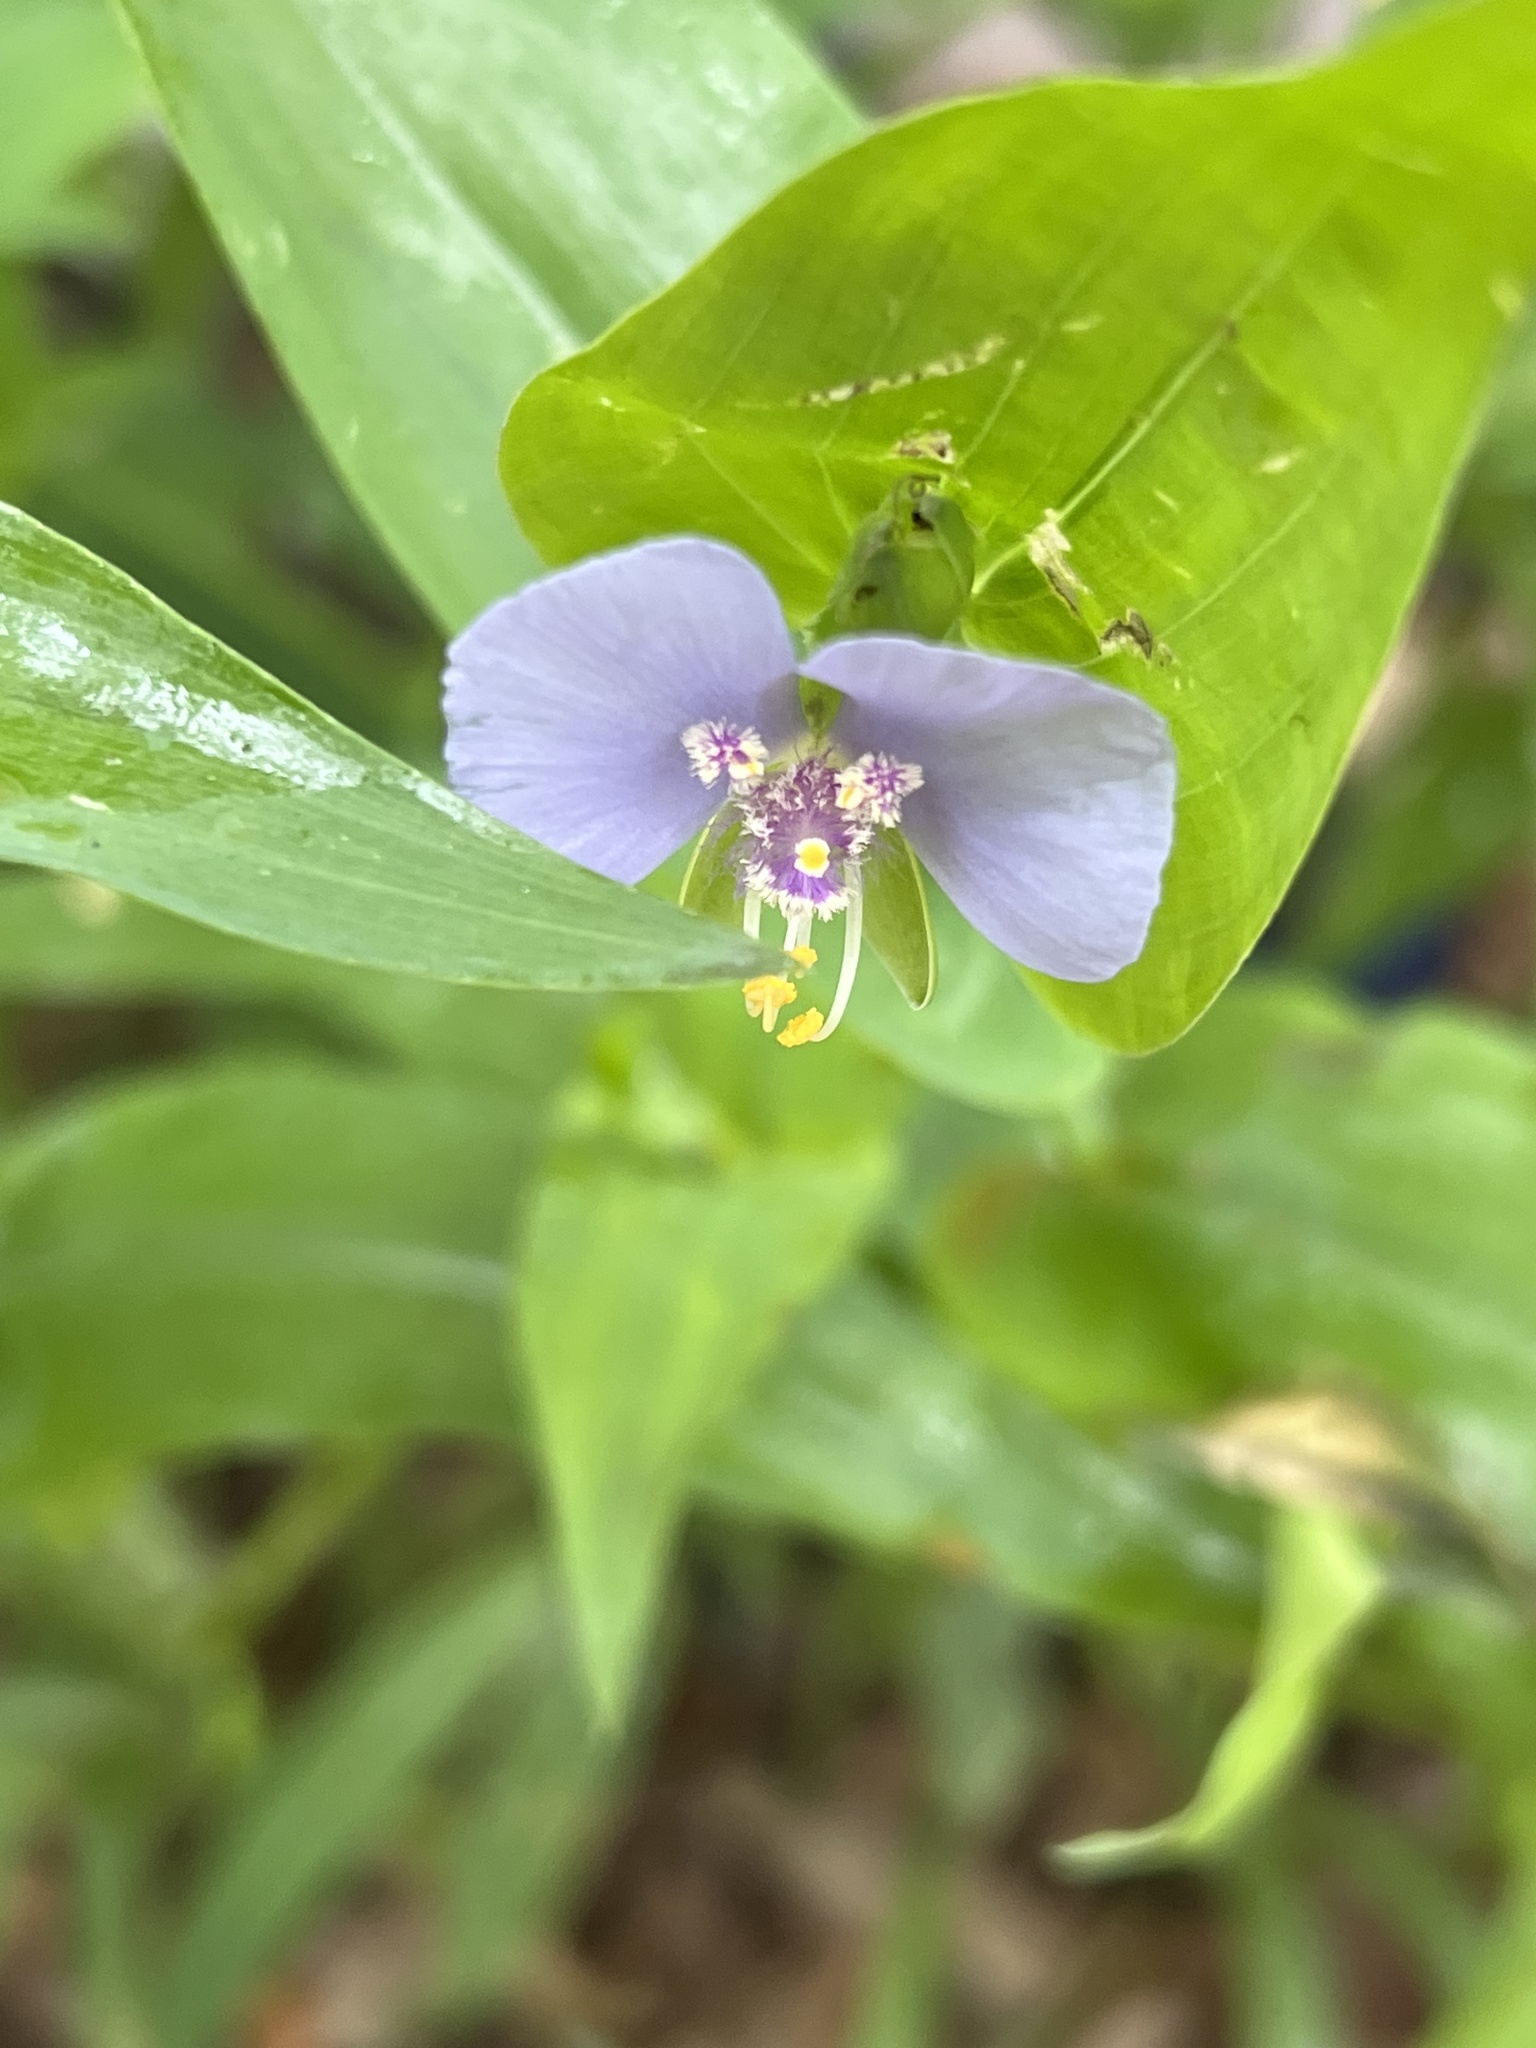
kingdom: Plantae
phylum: Tracheophyta
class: Liliopsida
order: Commelinales
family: Commelinaceae
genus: Tinantia
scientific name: Tinantia anomala
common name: False dayflower
